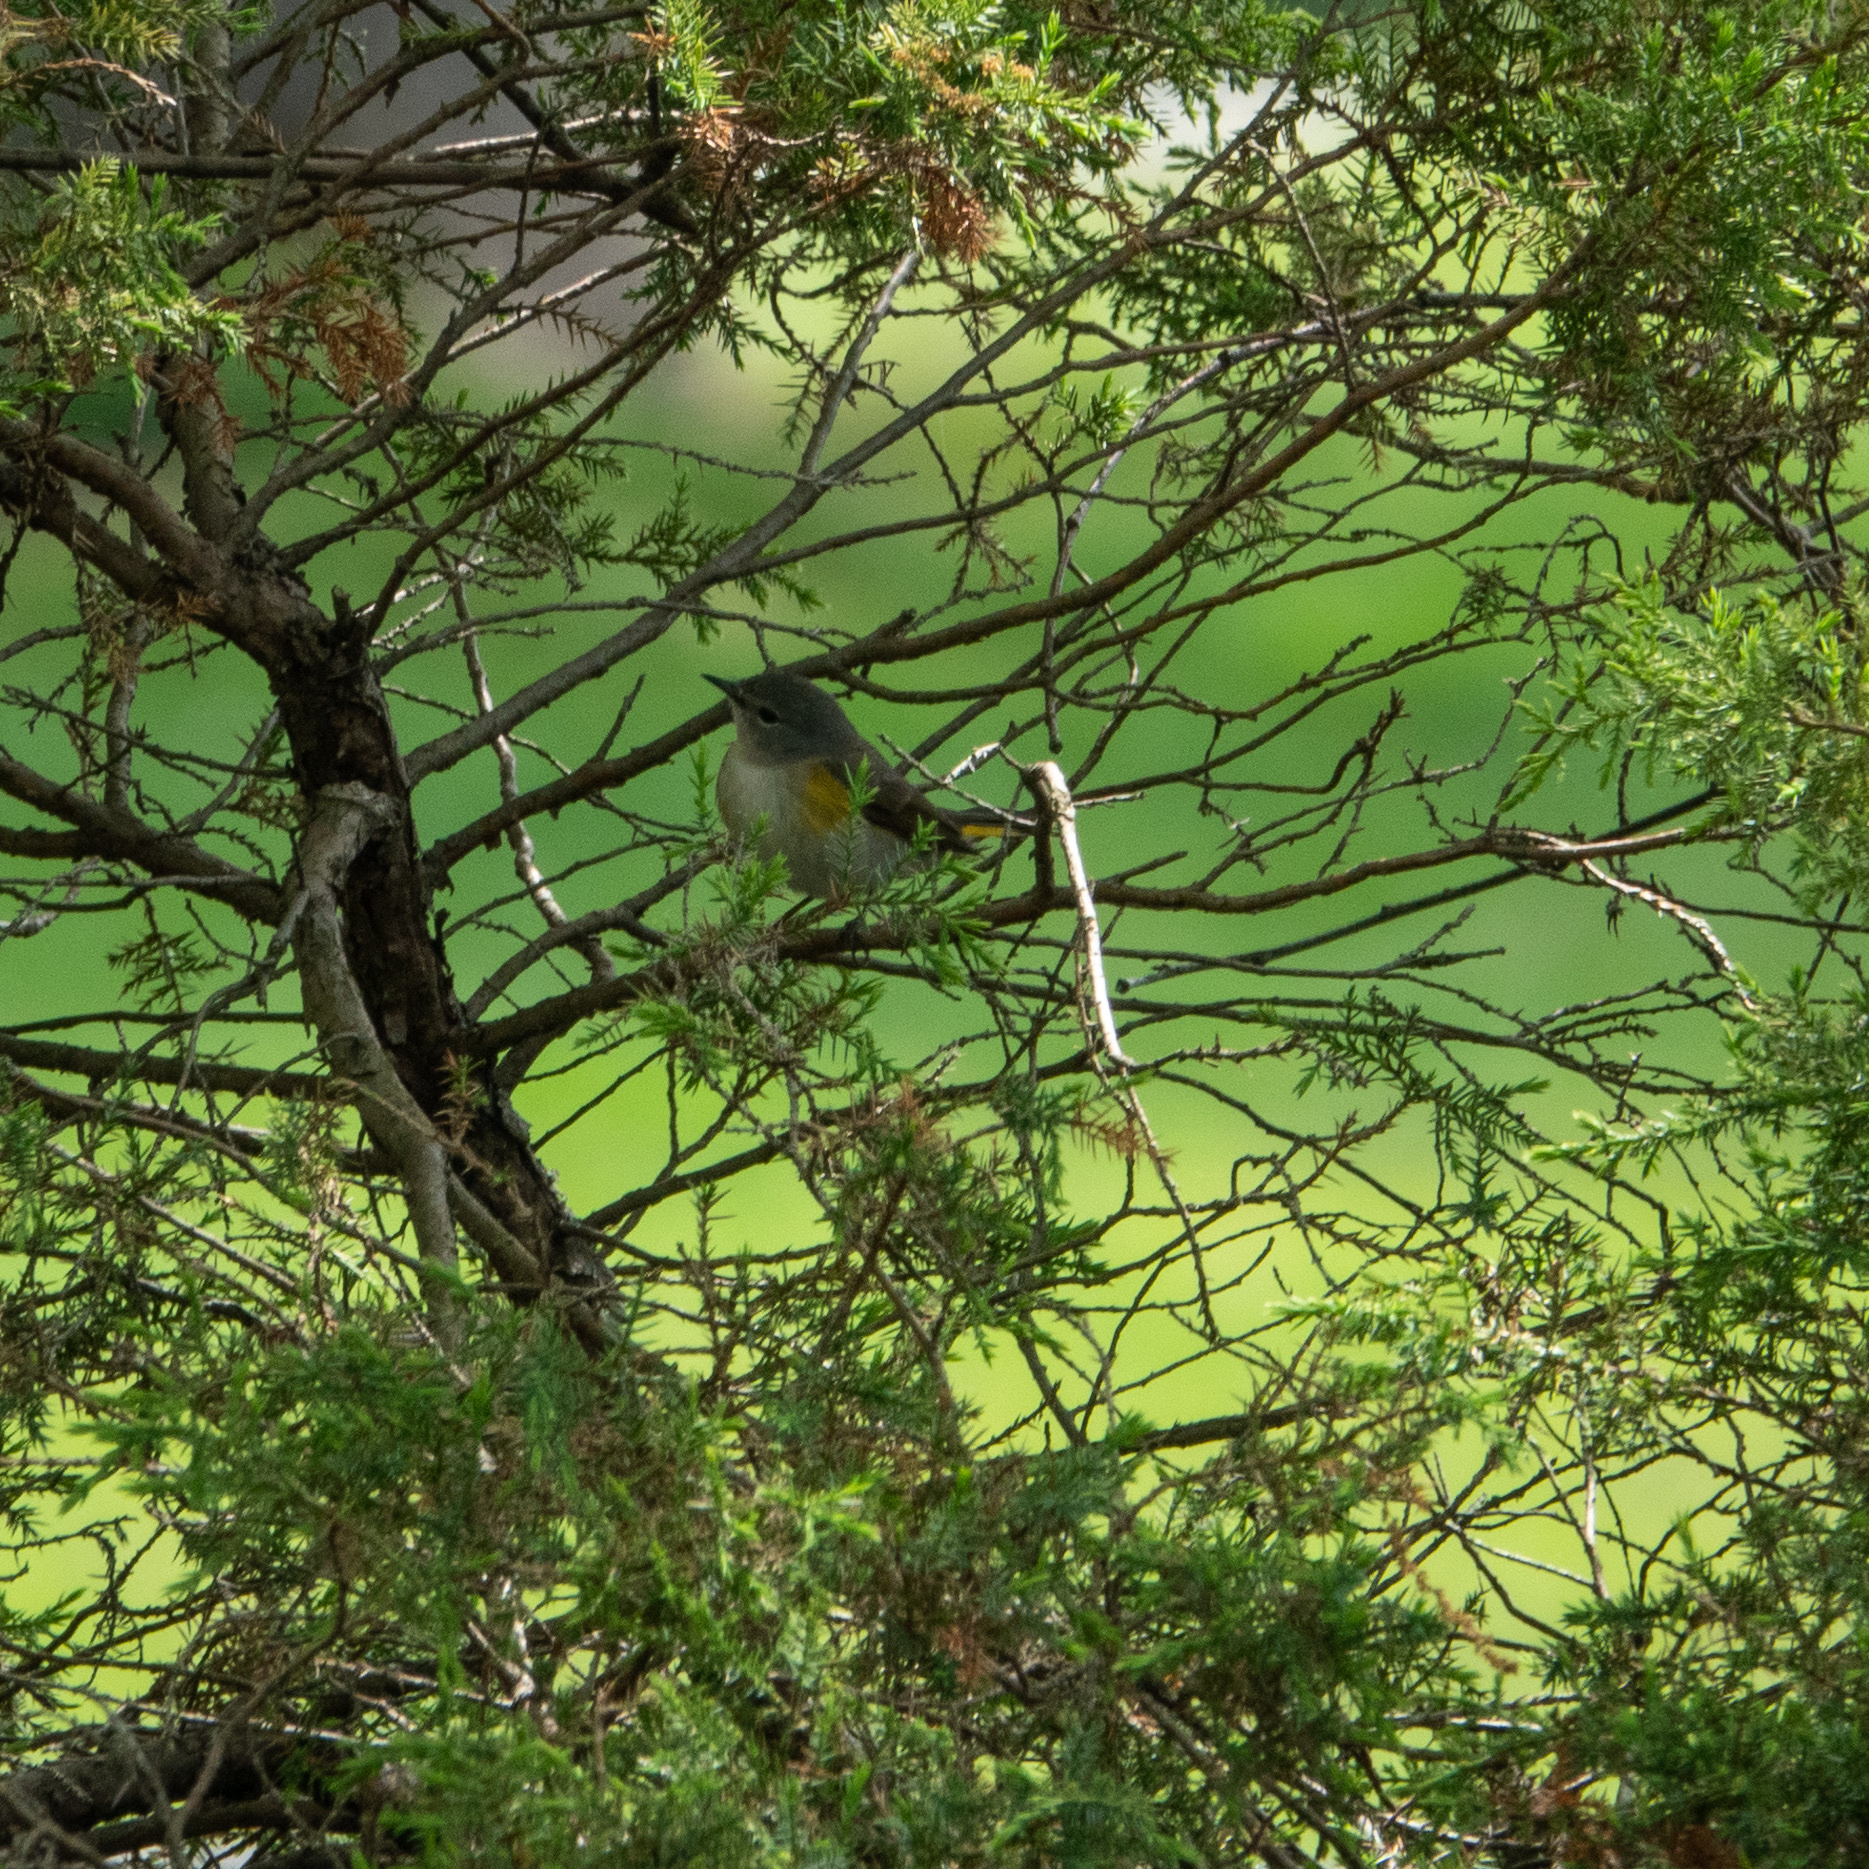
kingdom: Animalia
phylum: Chordata
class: Aves
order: Passeriformes
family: Parulidae
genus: Setophaga
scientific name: Setophaga ruticilla
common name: American redstart
